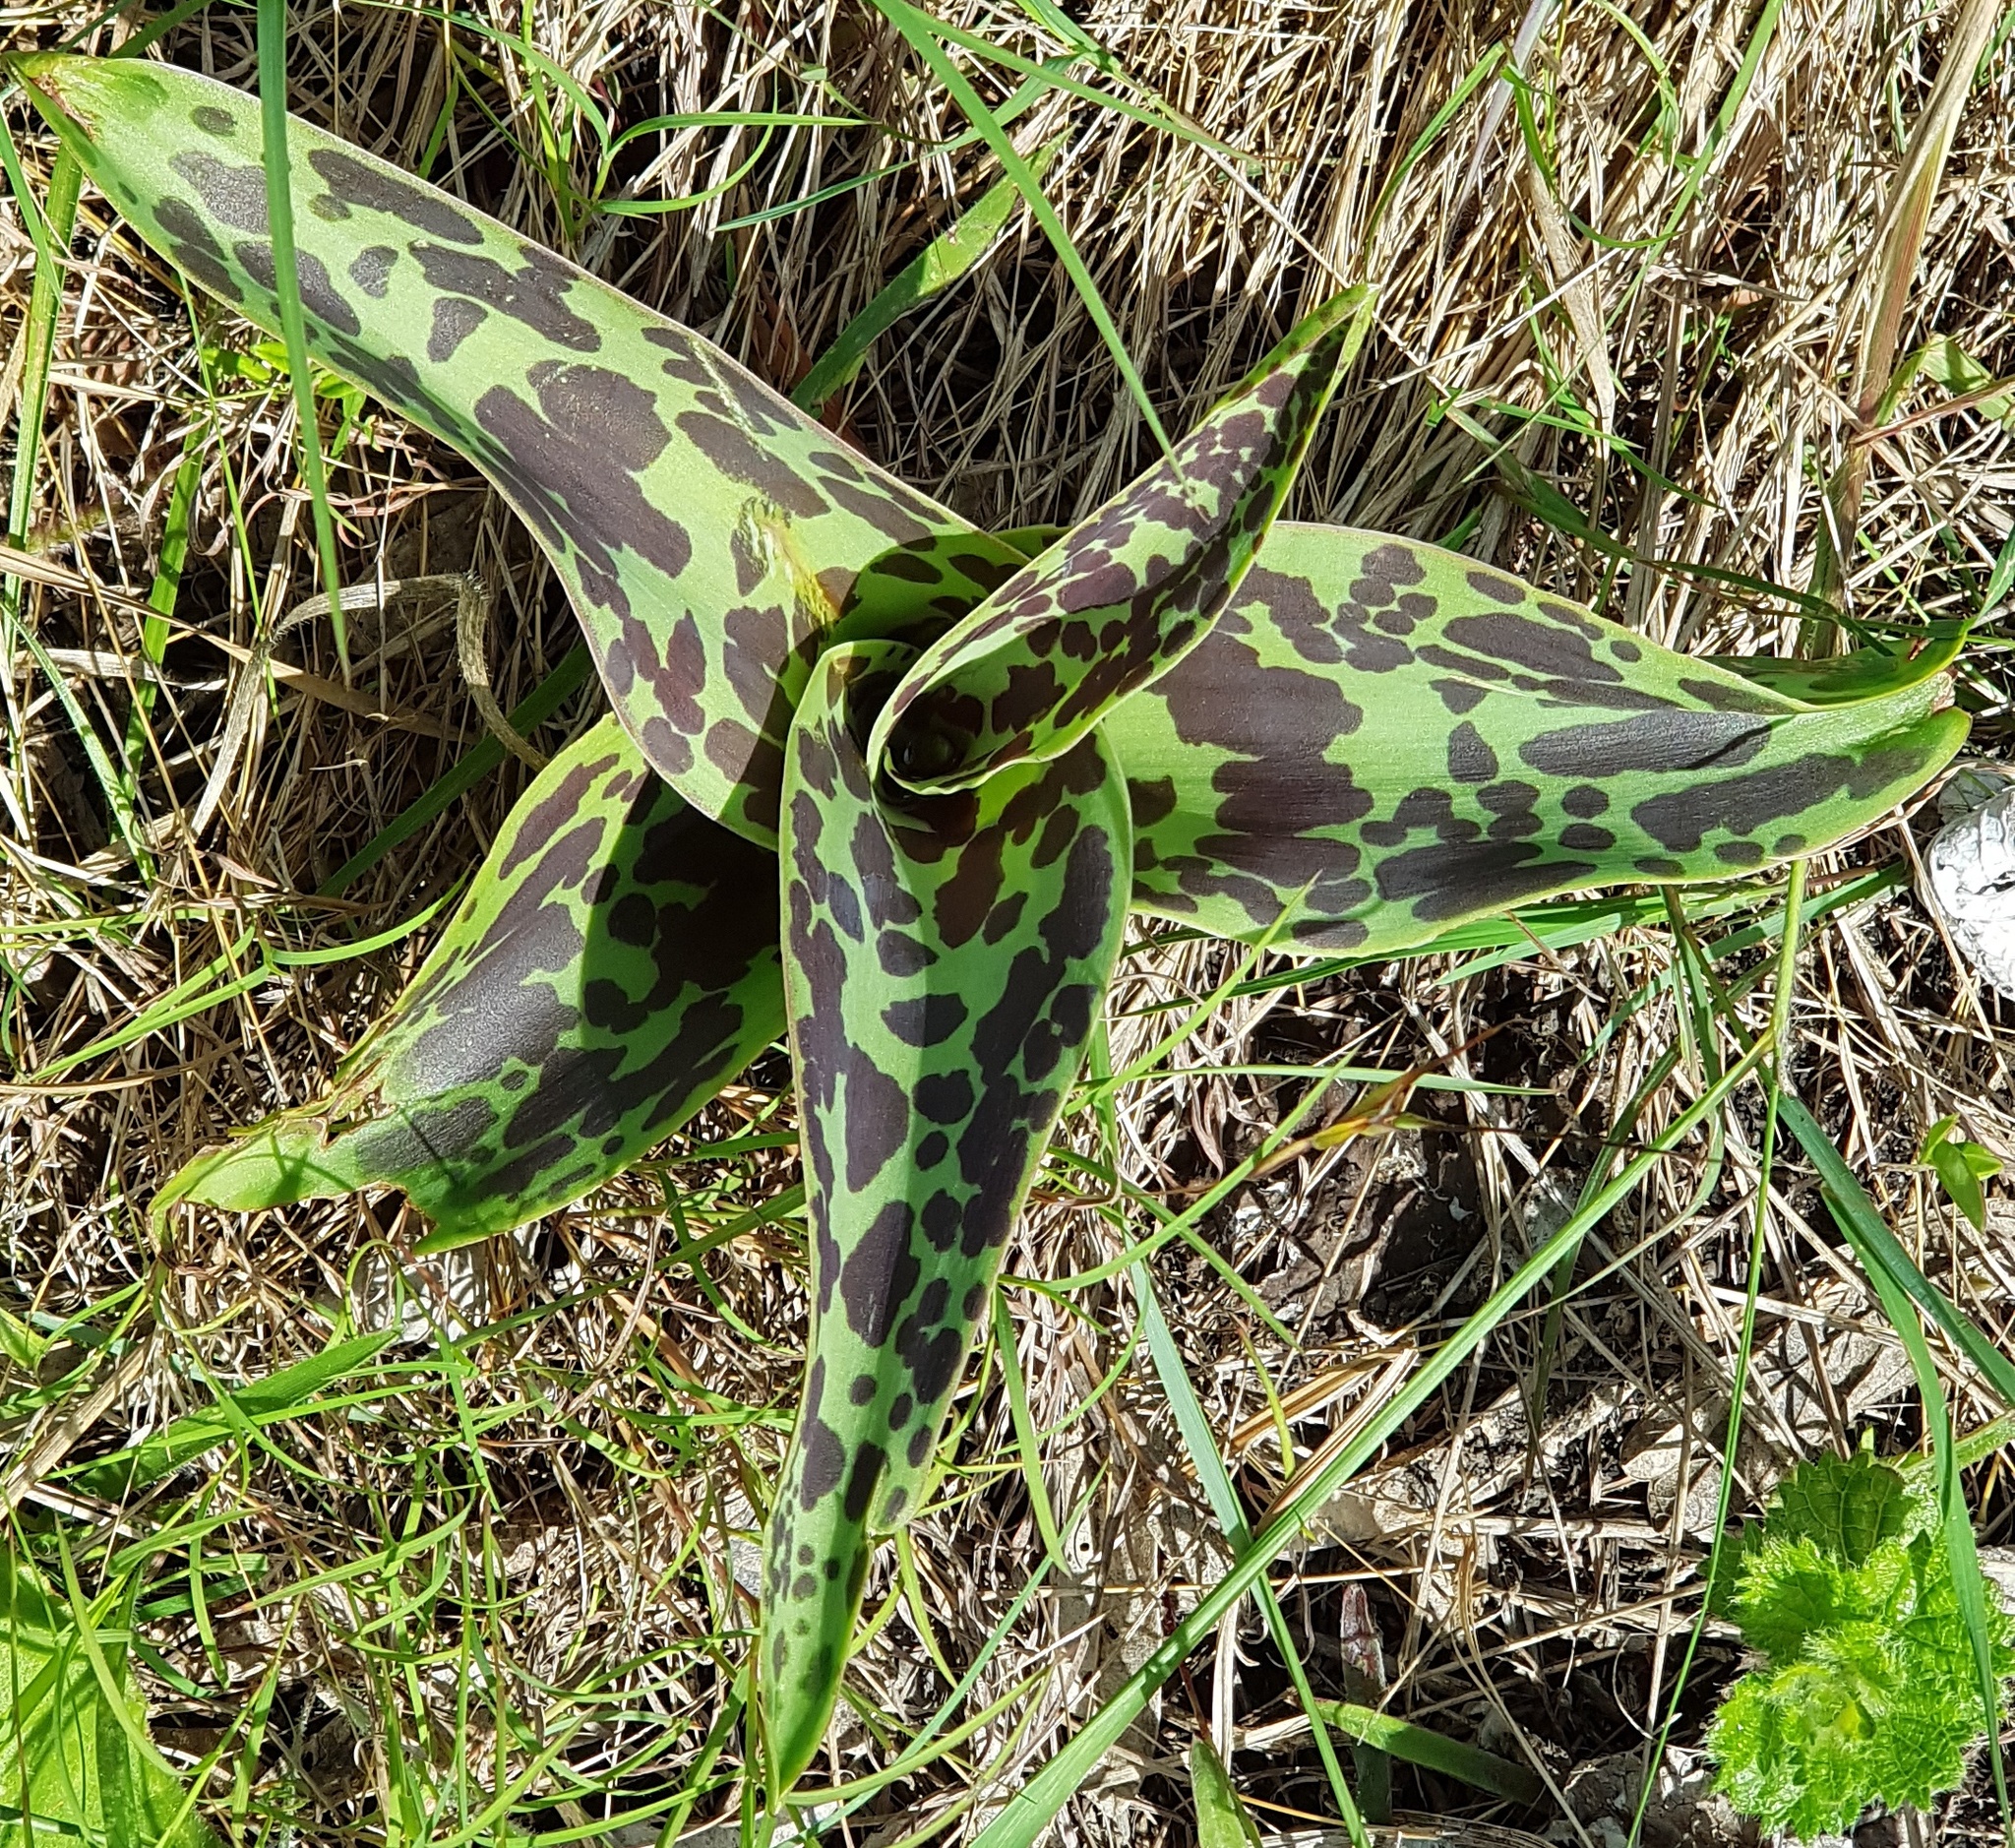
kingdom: Plantae
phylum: Tracheophyta
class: Liliopsida
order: Asparagales
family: Asparagaceae
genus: Ledebouria
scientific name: Ledebouria floribunda
